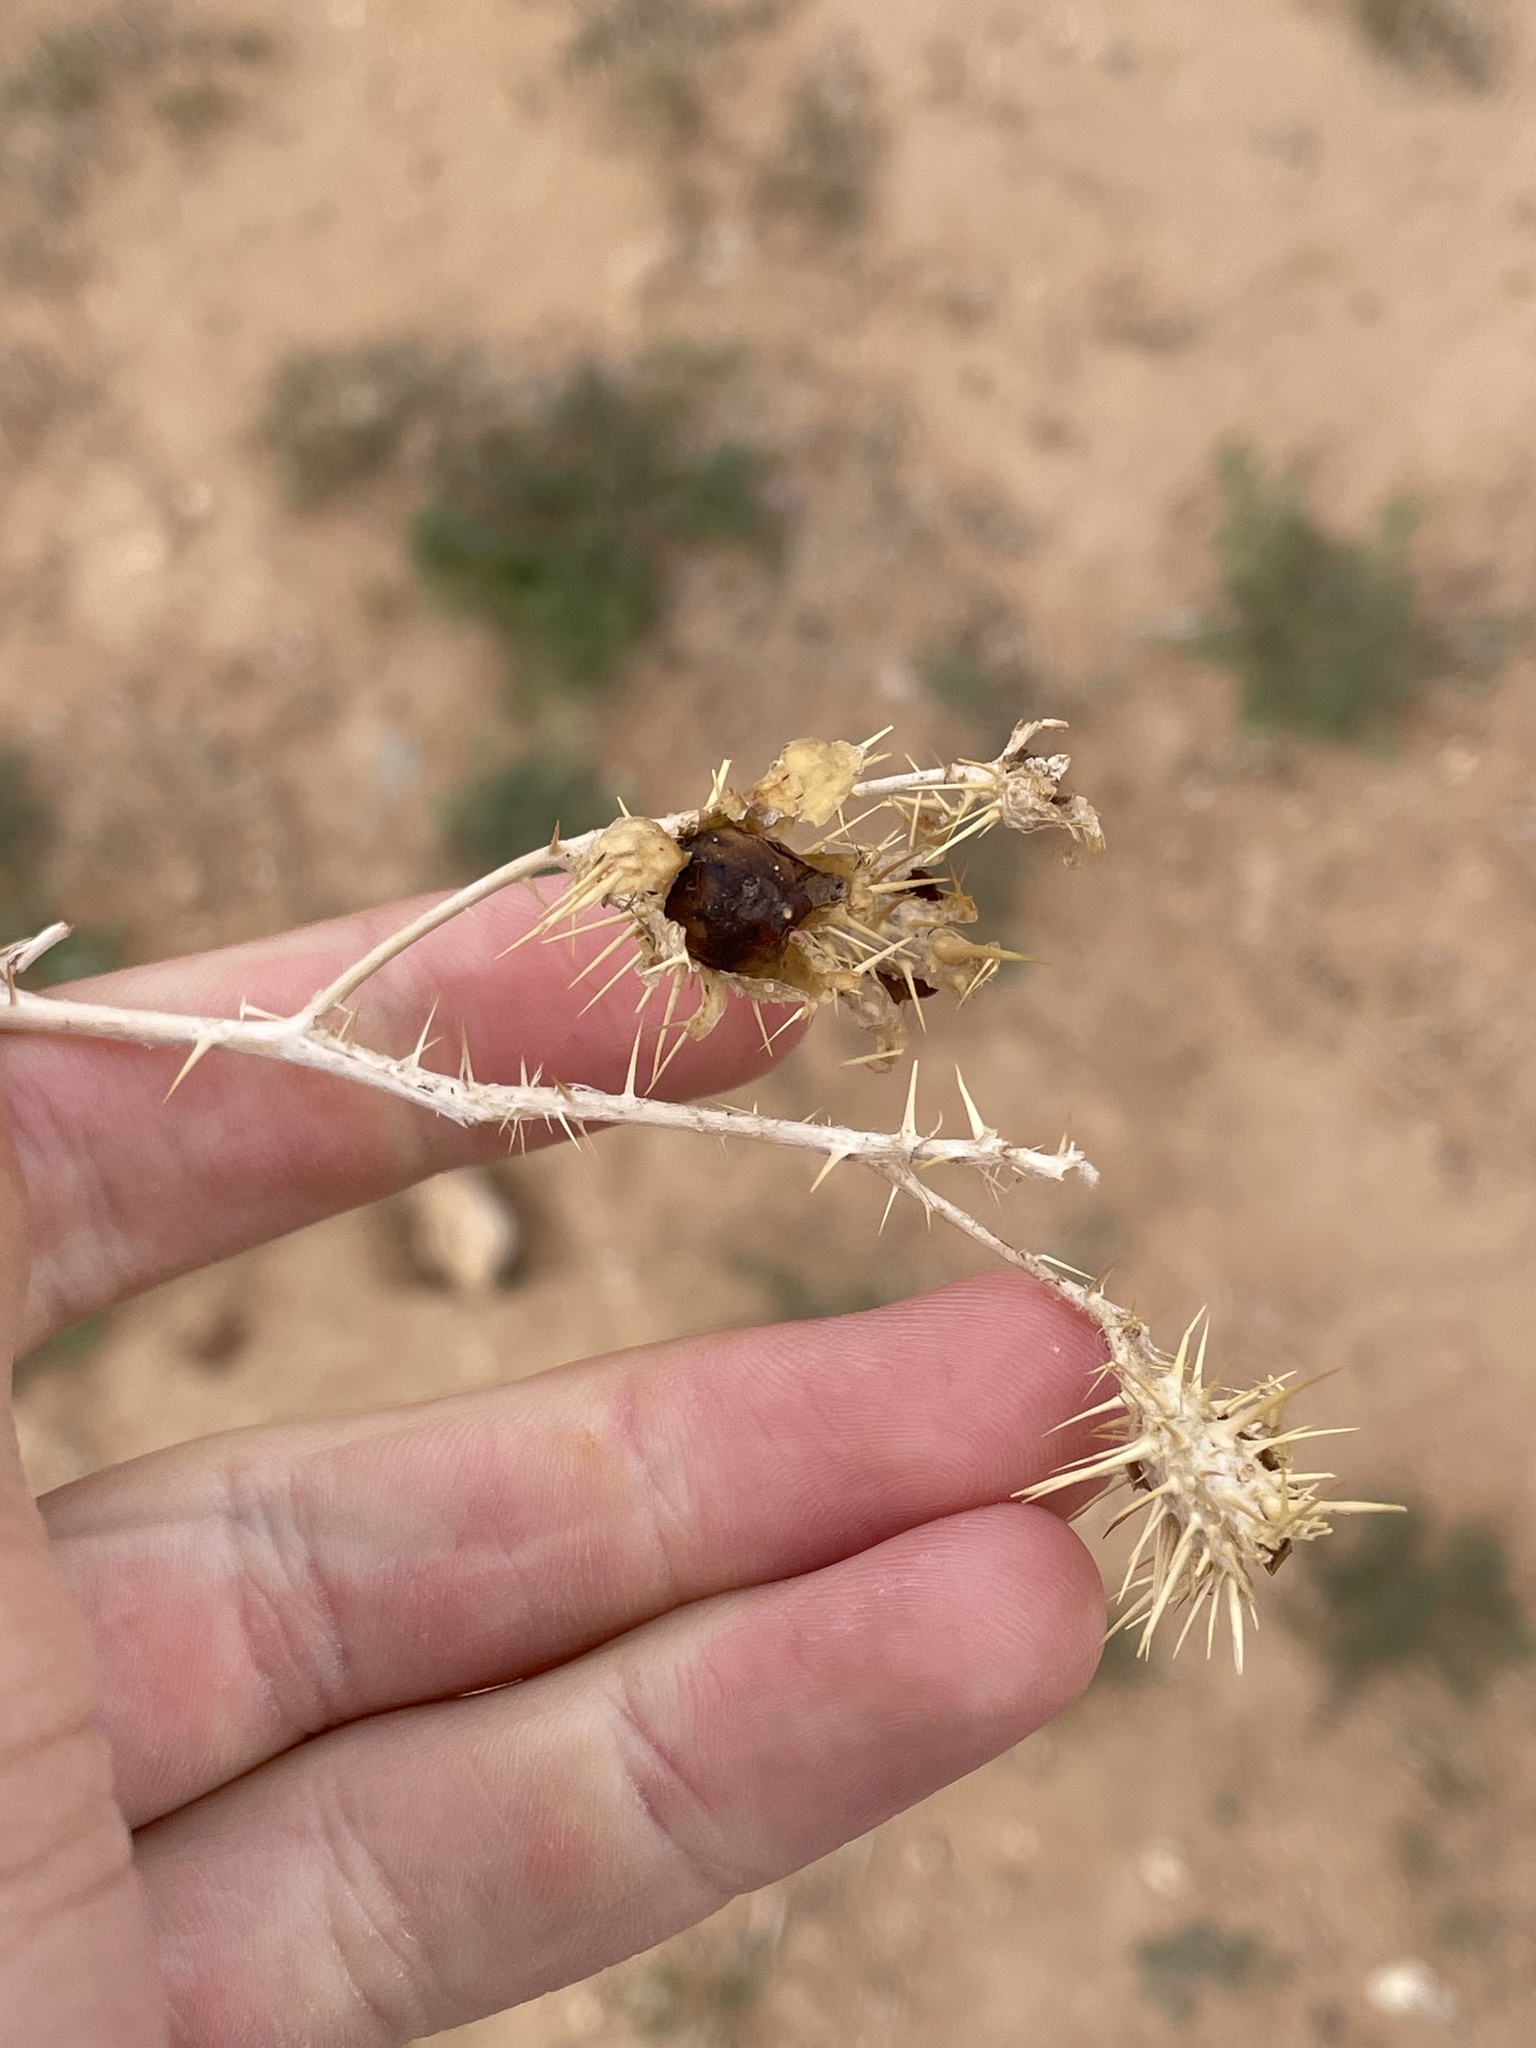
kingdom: Plantae
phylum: Tracheophyta
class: Magnoliopsida
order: Solanales
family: Solanaceae
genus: Solanum
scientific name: Solanum angustifolium
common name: Buffalobur nightshade
